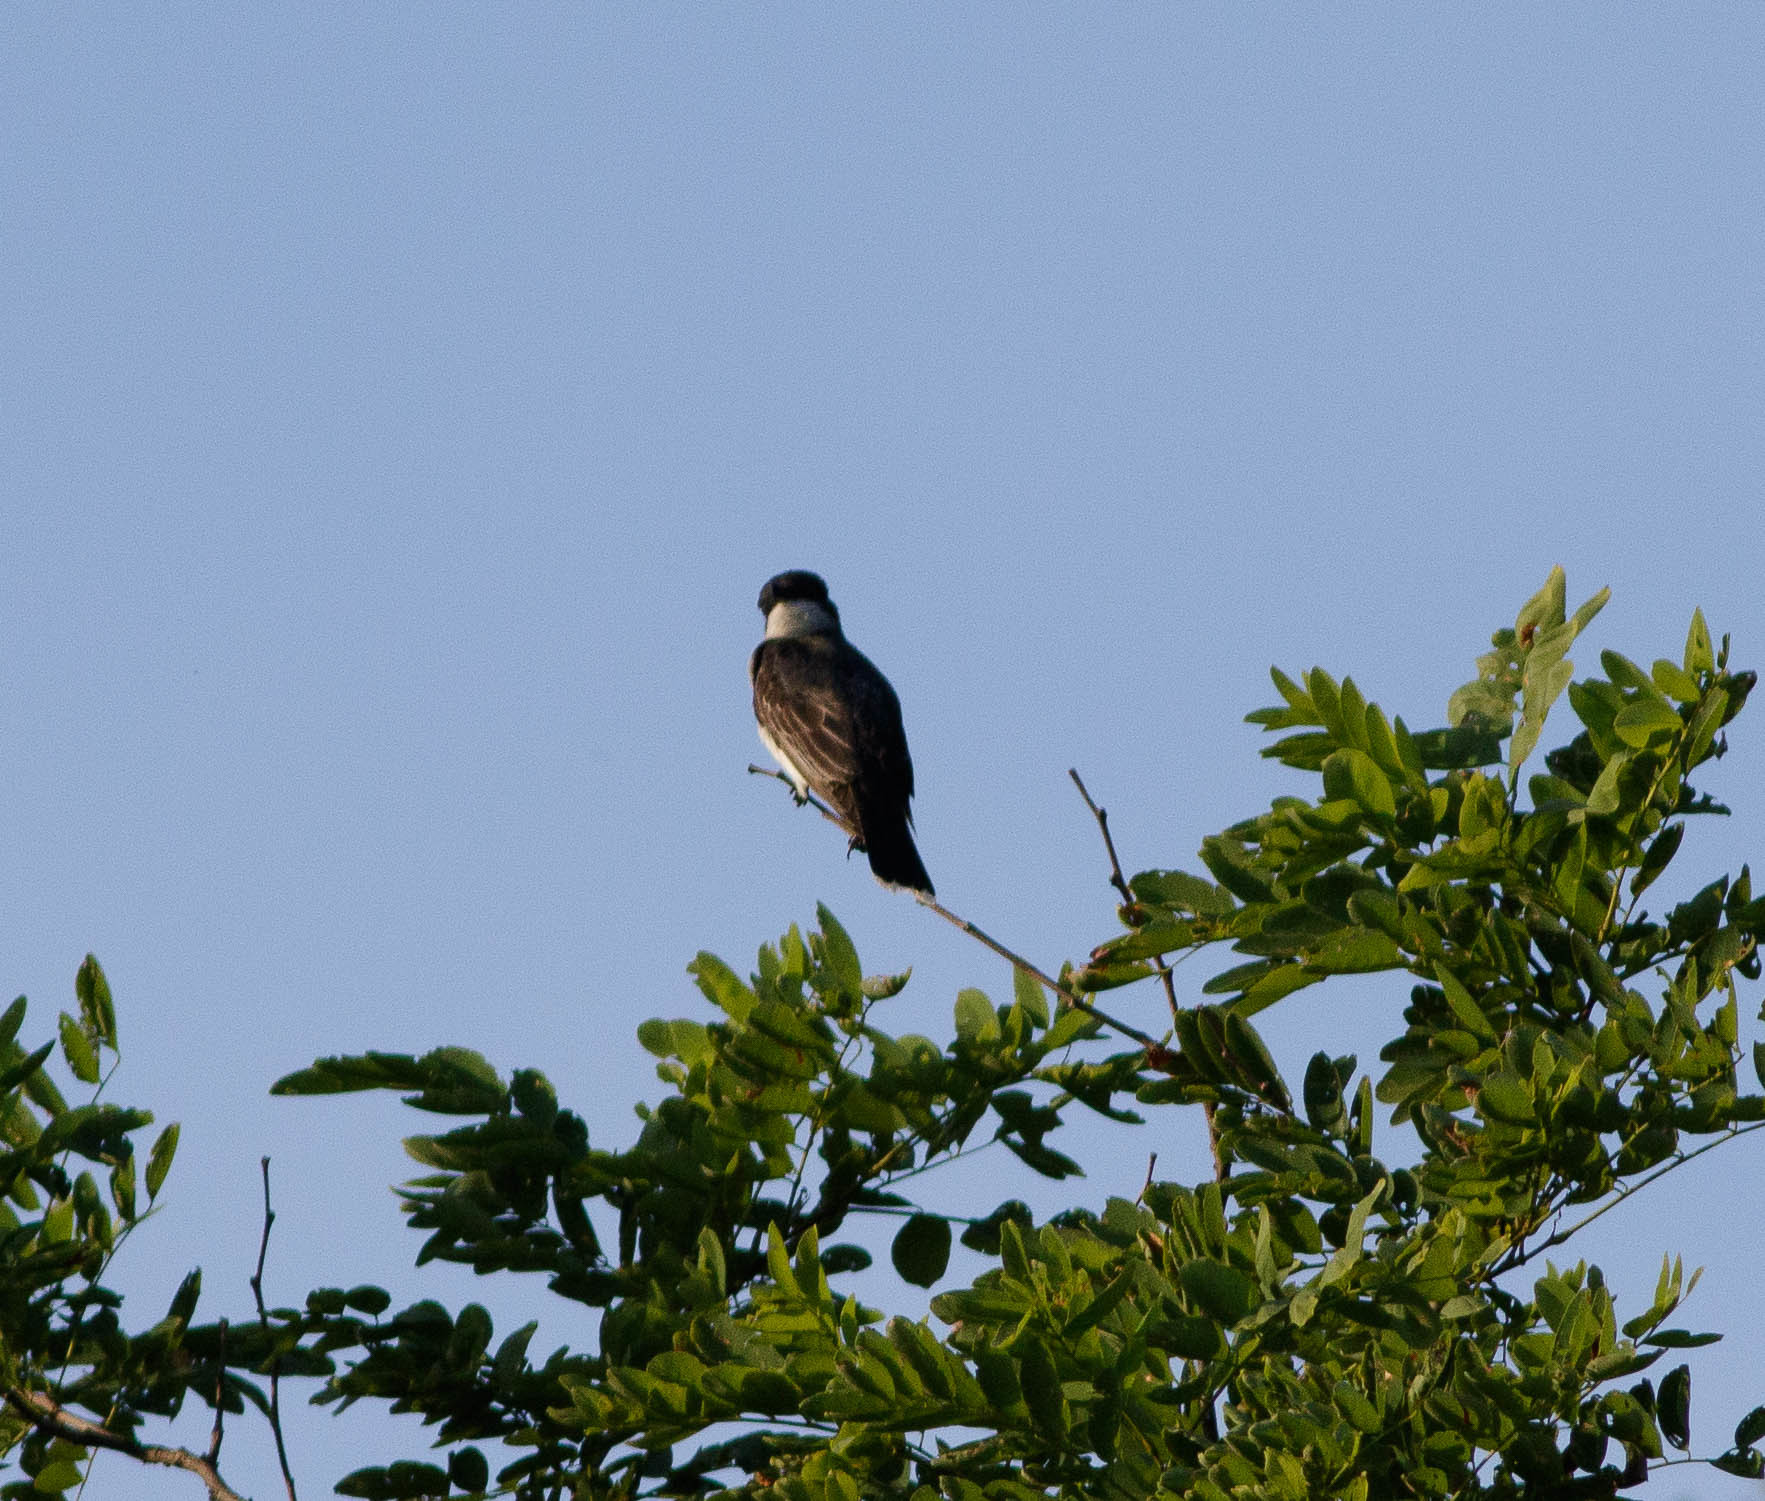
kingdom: Animalia
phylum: Chordata
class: Aves
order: Passeriformes
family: Tyrannidae
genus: Tyrannus
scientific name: Tyrannus tyrannus
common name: Eastern kingbird
